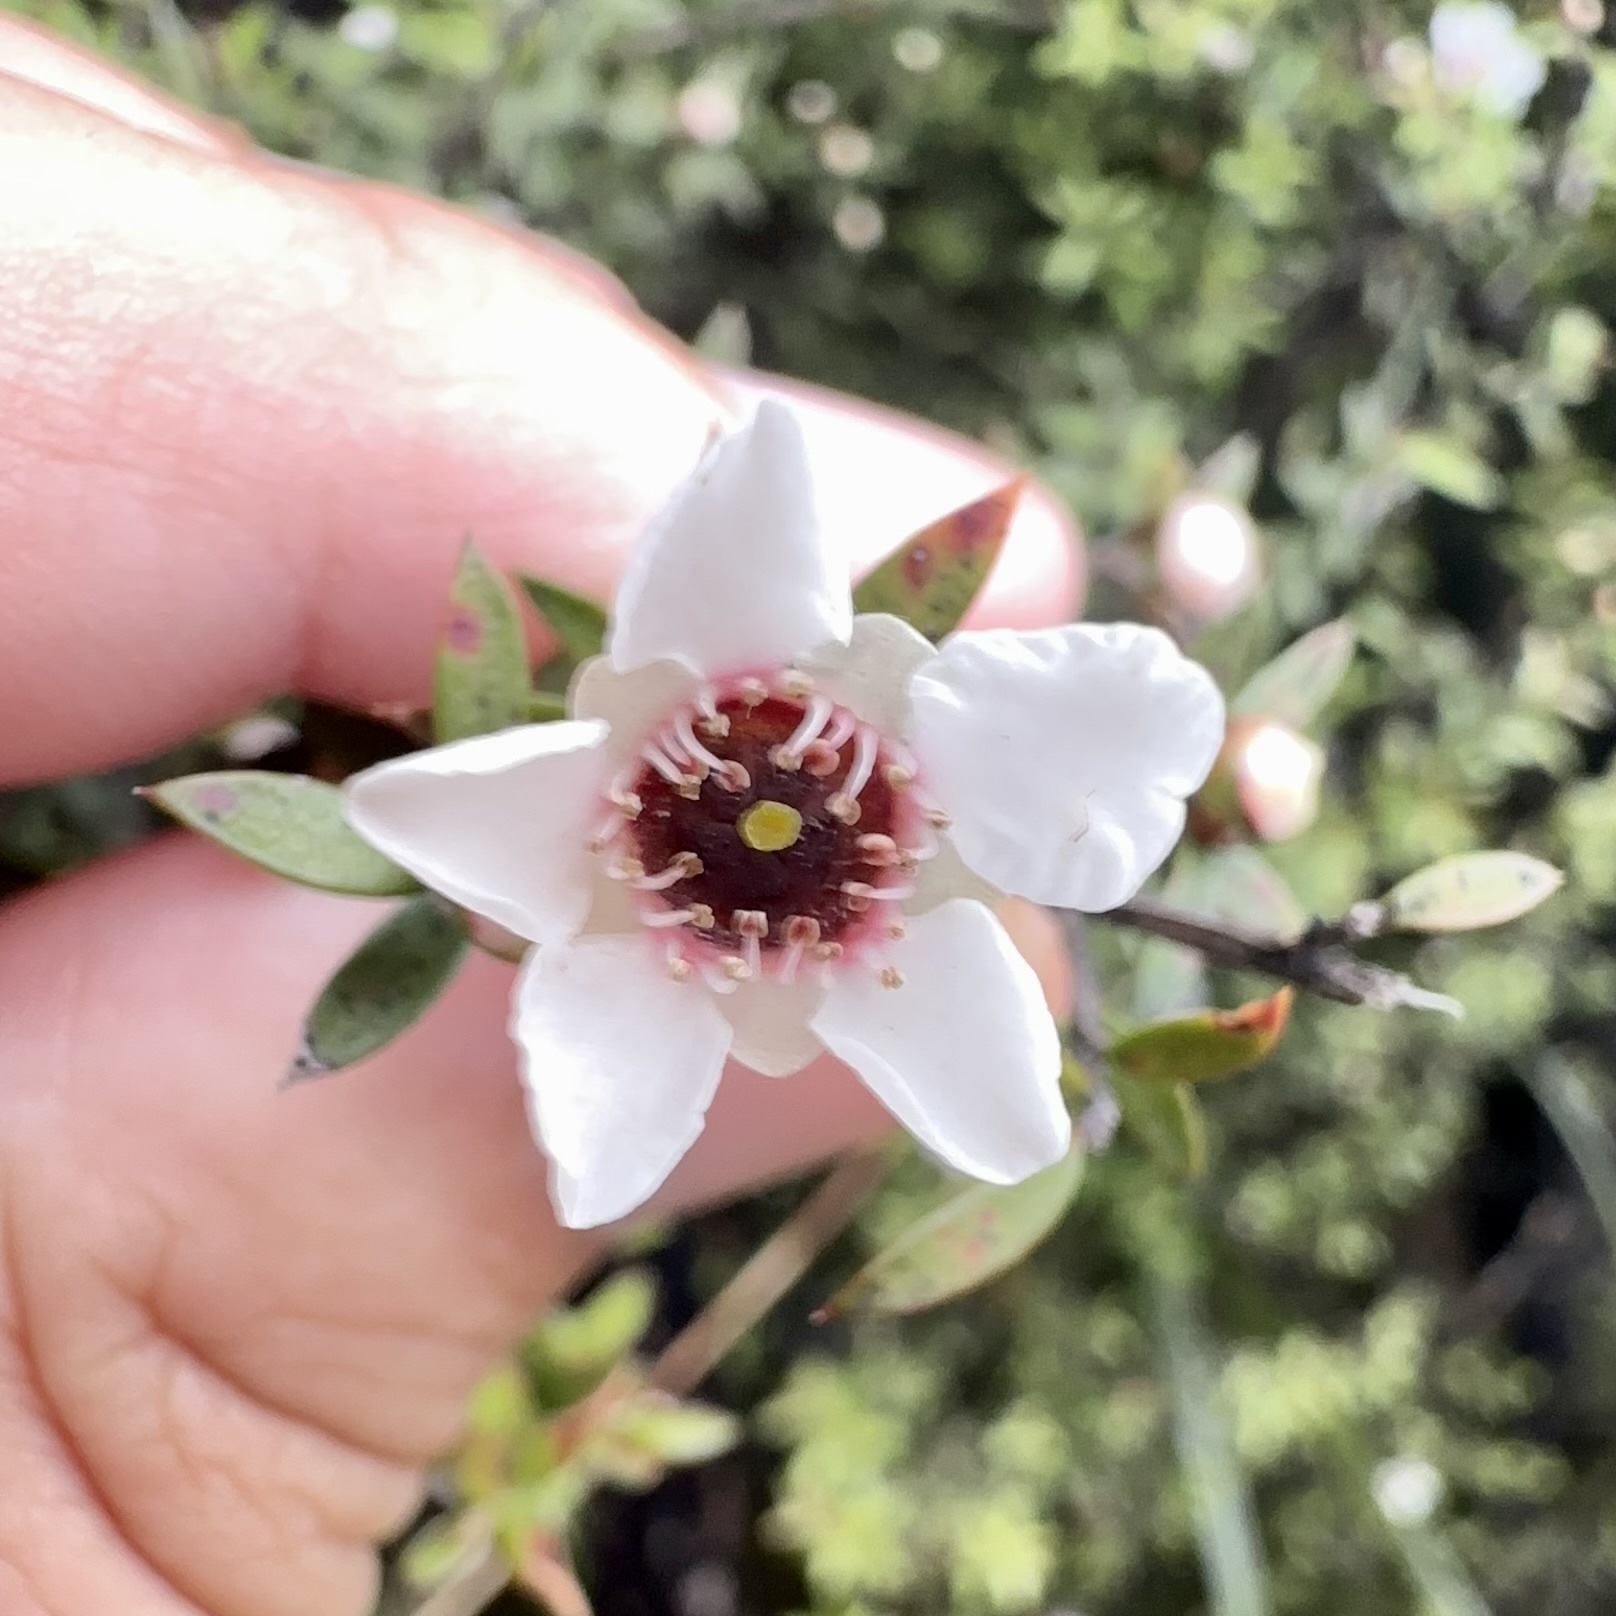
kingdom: Plantae
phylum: Tracheophyta
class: Magnoliopsida
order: Myrtales
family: Myrtaceae
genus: Leptospermum
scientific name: Leptospermum scoparium
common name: Broom tea-tree
